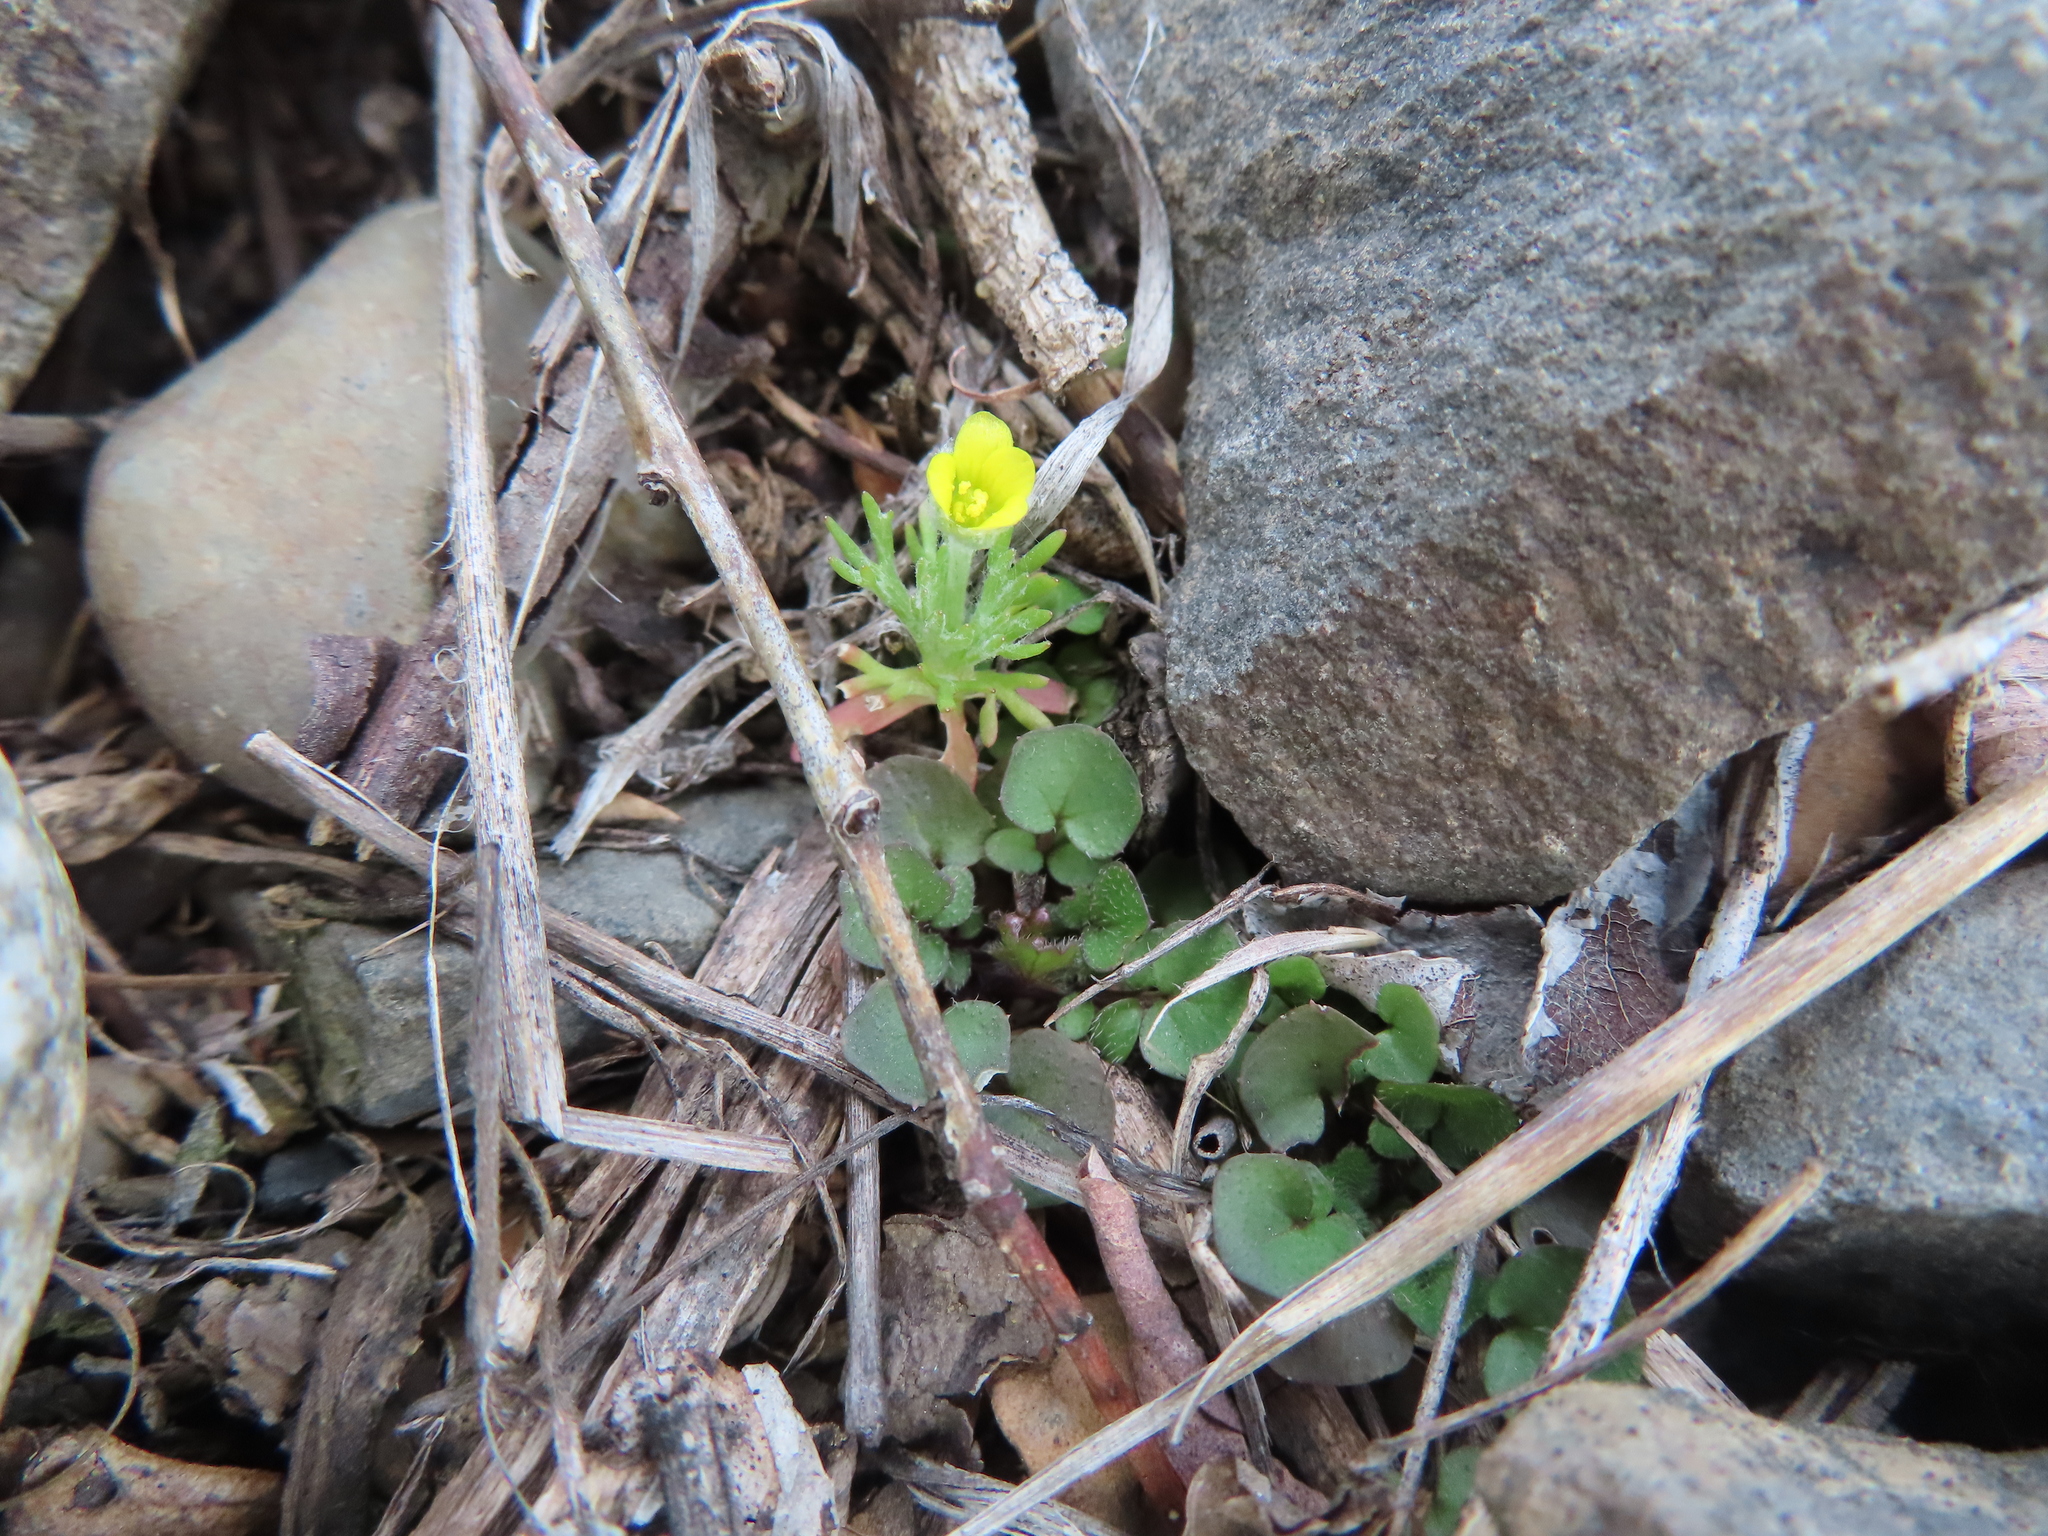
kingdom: Plantae
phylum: Tracheophyta
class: Magnoliopsida
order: Ranunculales
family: Ranunculaceae
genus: Ceratocephala
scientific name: Ceratocephala orthoceras
